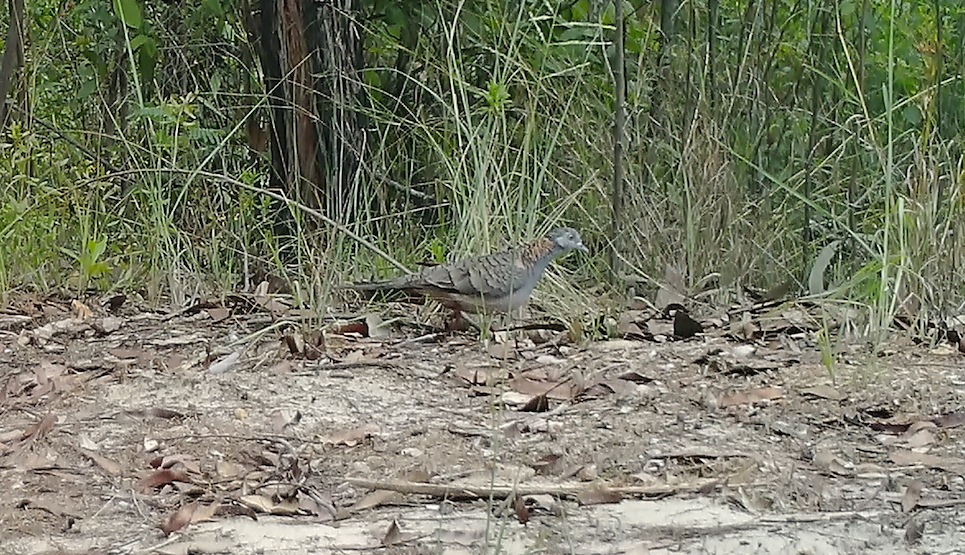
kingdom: Animalia
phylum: Chordata
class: Aves
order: Columbiformes
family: Columbidae
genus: Geopelia
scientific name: Geopelia humeralis
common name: Bar-shouldered dove
